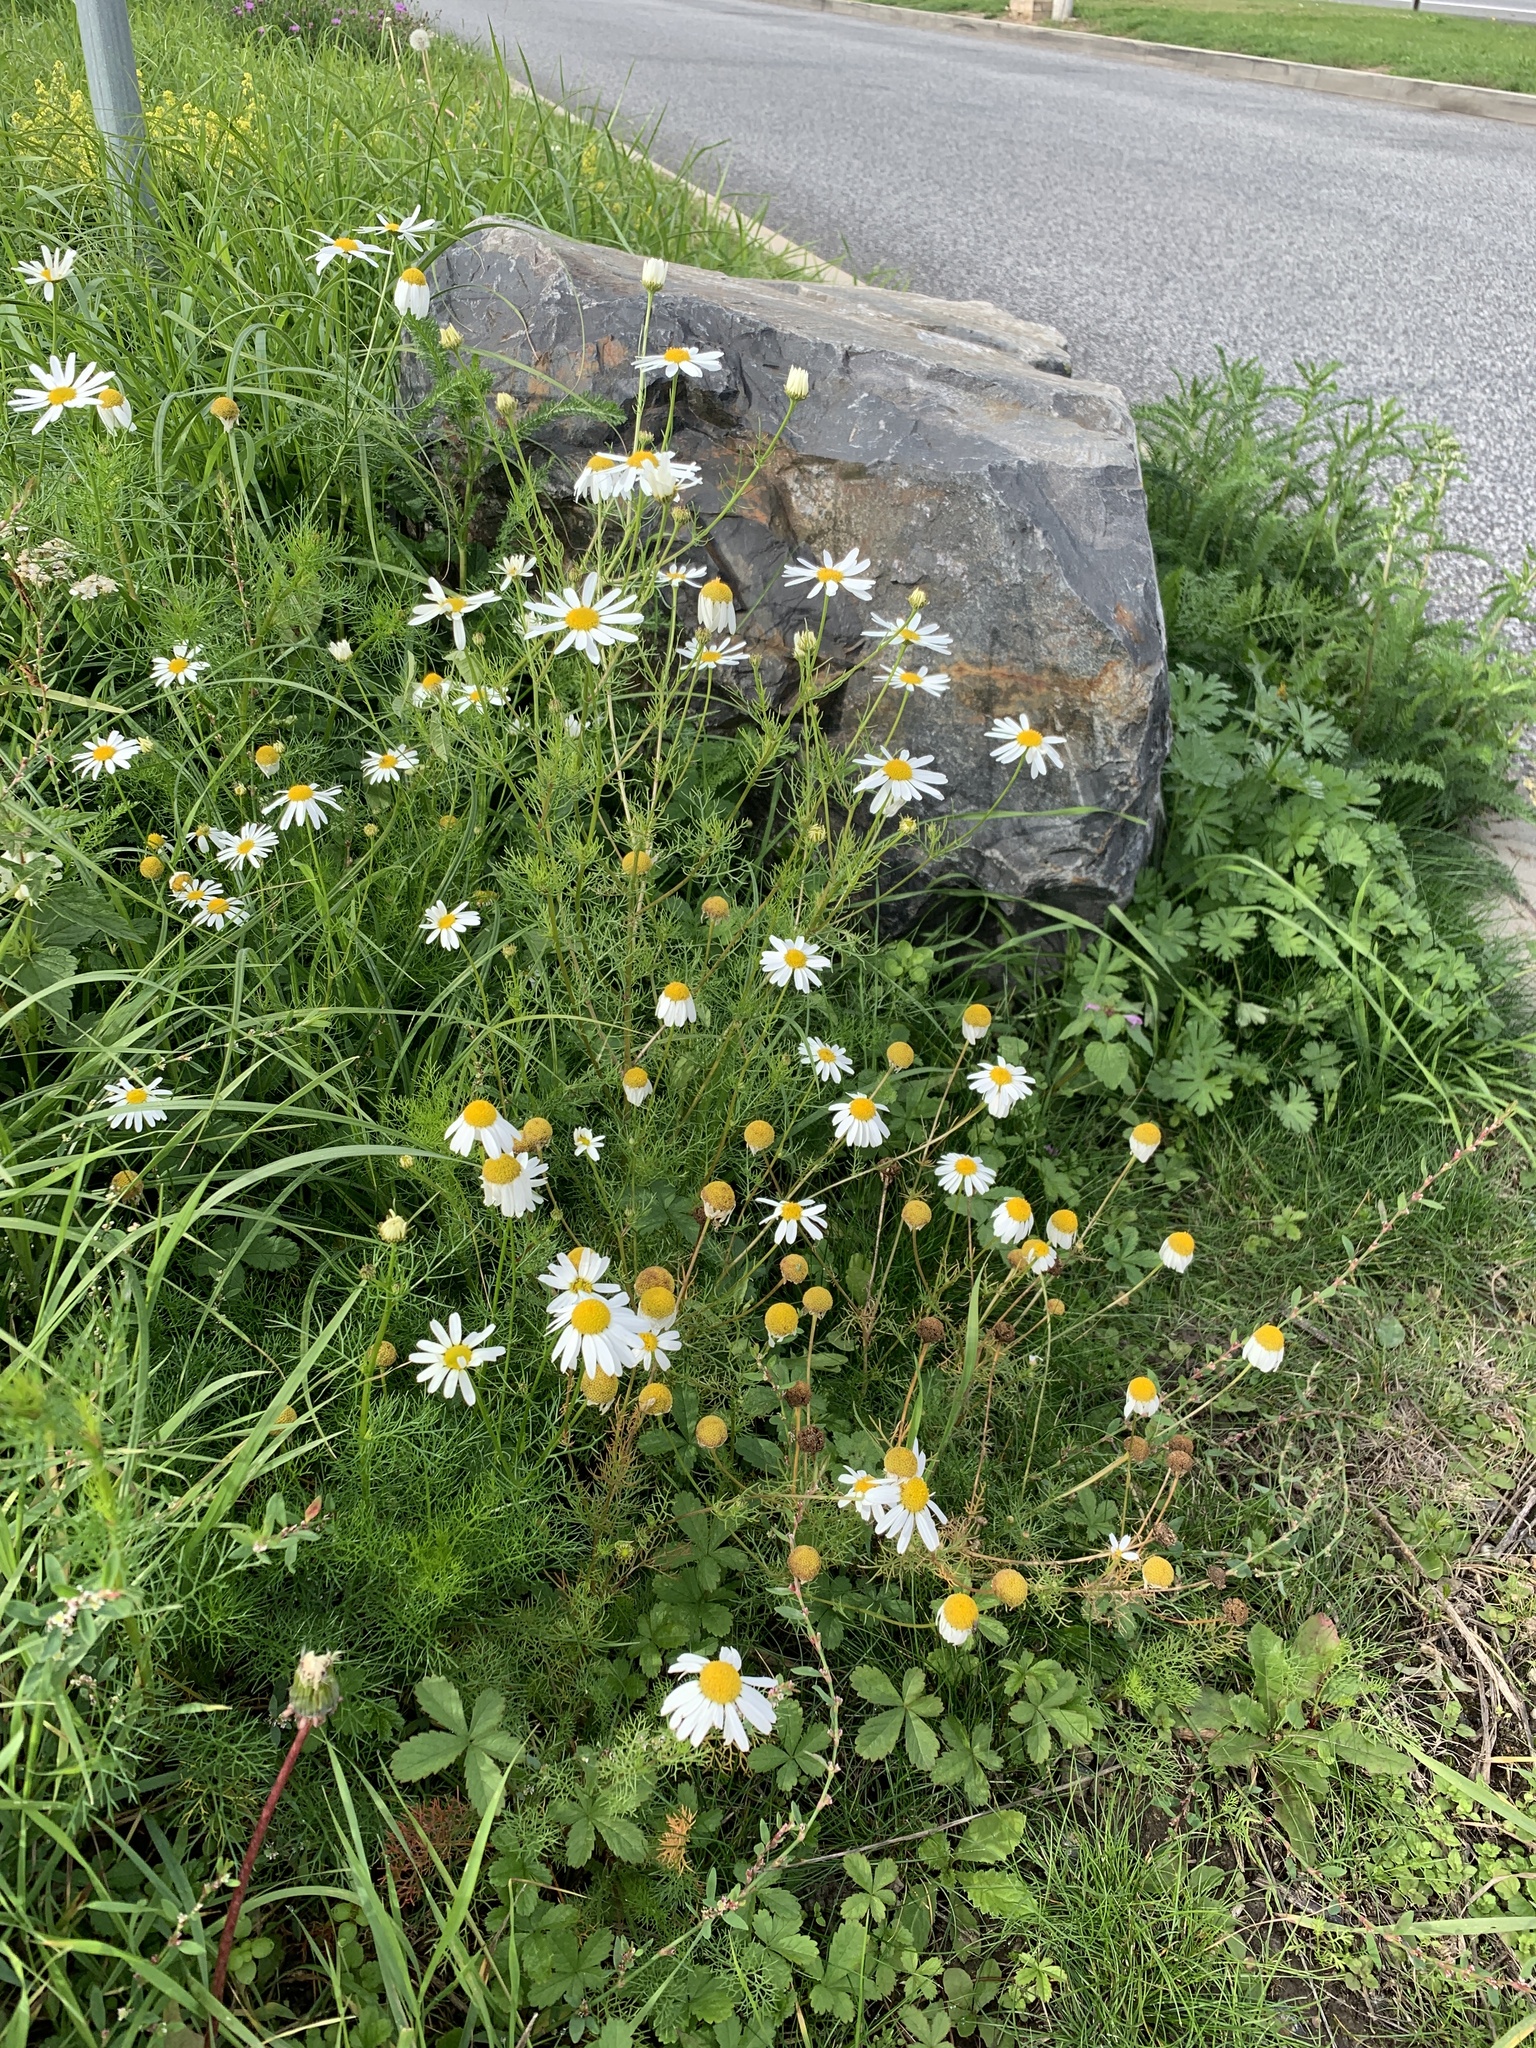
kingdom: Plantae
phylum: Tracheophyta
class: Magnoliopsida
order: Asterales
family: Asteraceae
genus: Tripleurospermum
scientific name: Tripleurospermum inodorum
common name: Scentless mayweed
